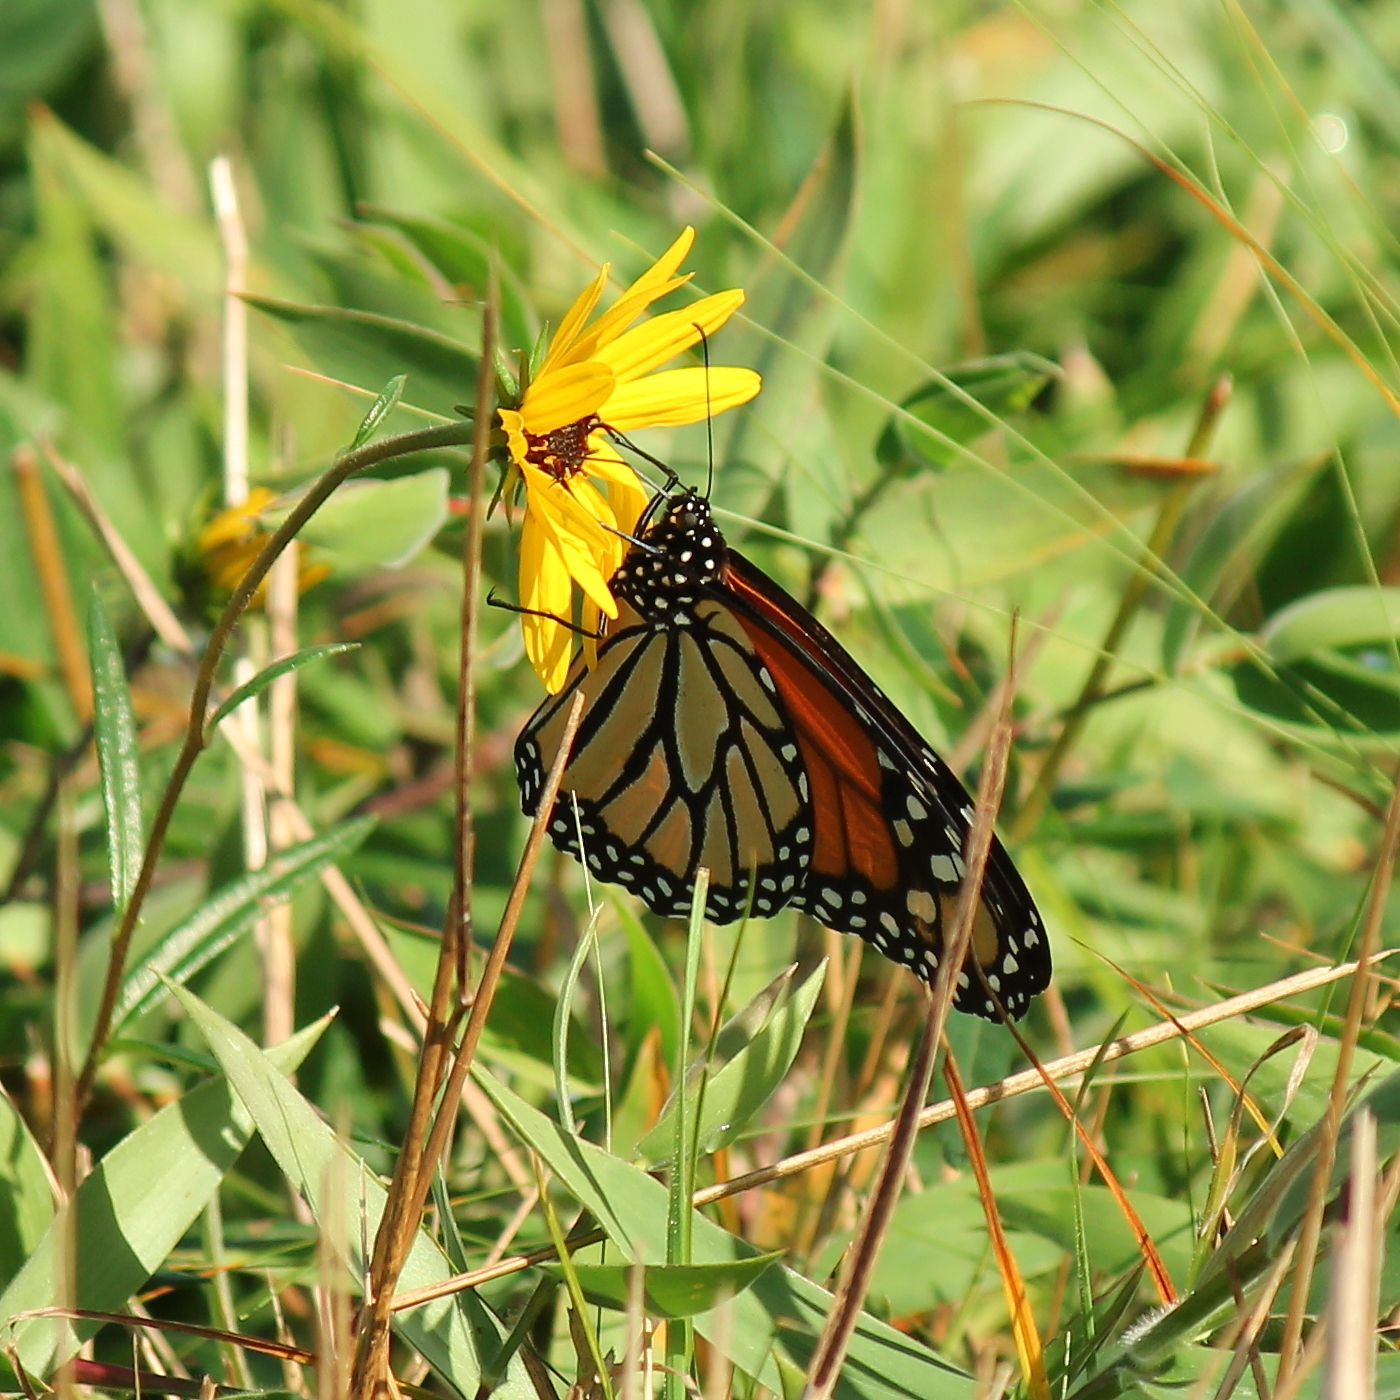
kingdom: Animalia
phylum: Arthropoda
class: Insecta
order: Lepidoptera
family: Nymphalidae
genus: Danaus
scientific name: Danaus plexippus
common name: Monarch
